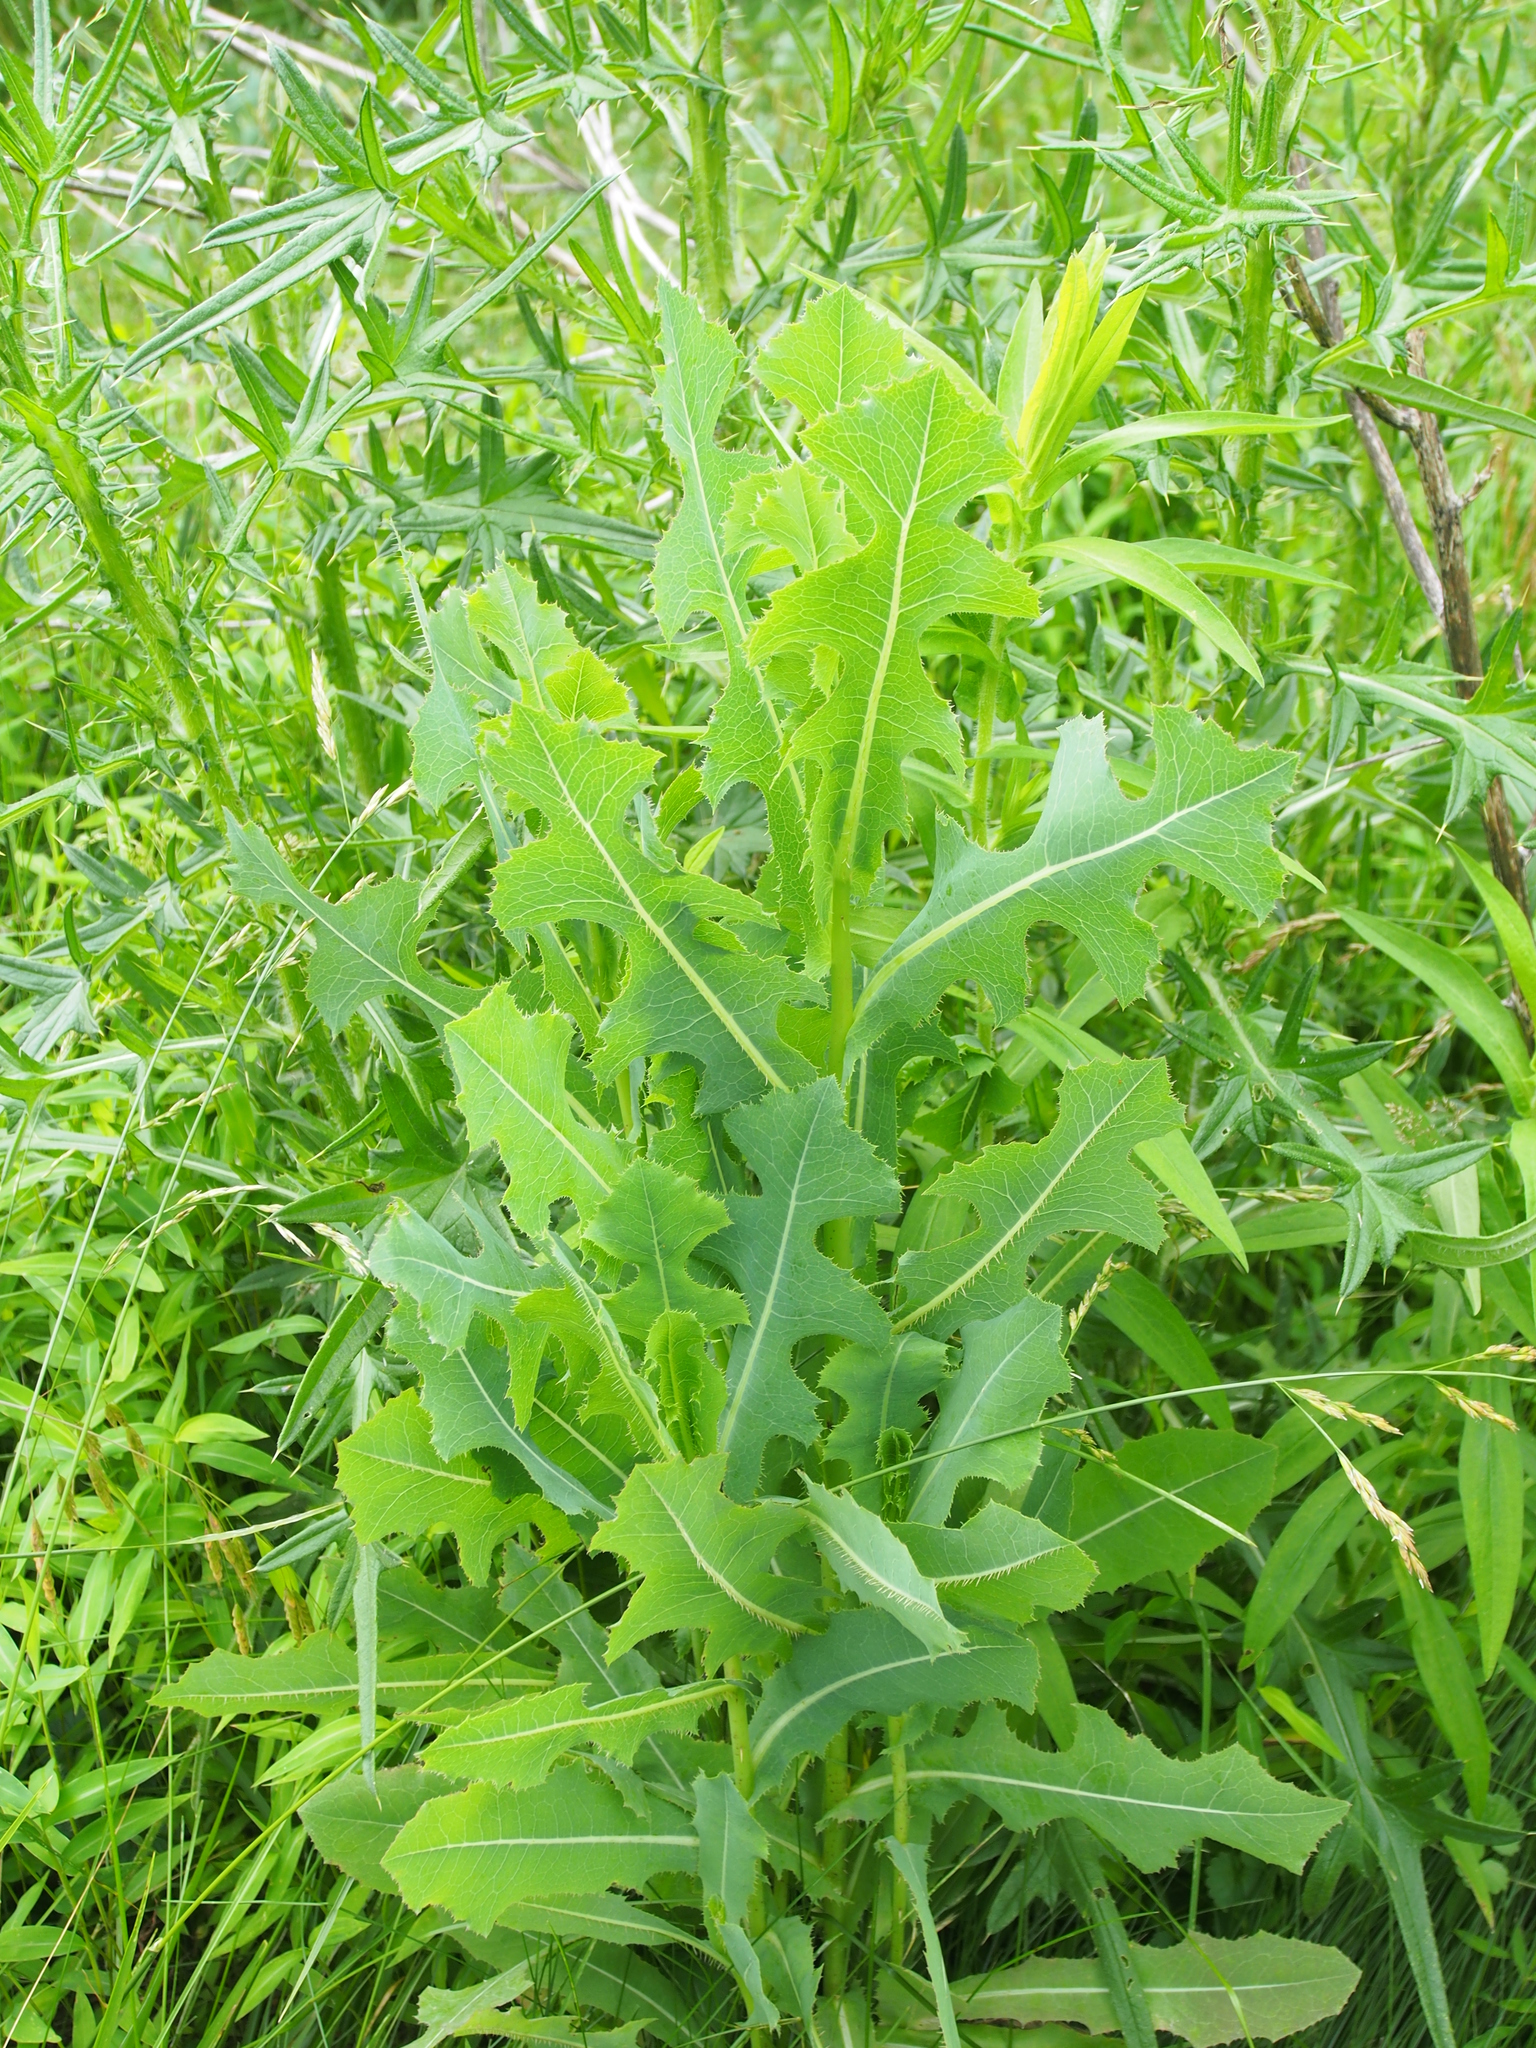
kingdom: Plantae
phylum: Tracheophyta
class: Magnoliopsida
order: Asterales
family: Asteraceae
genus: Lactuca
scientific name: Lactuca serriola
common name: Prickly lettuce
